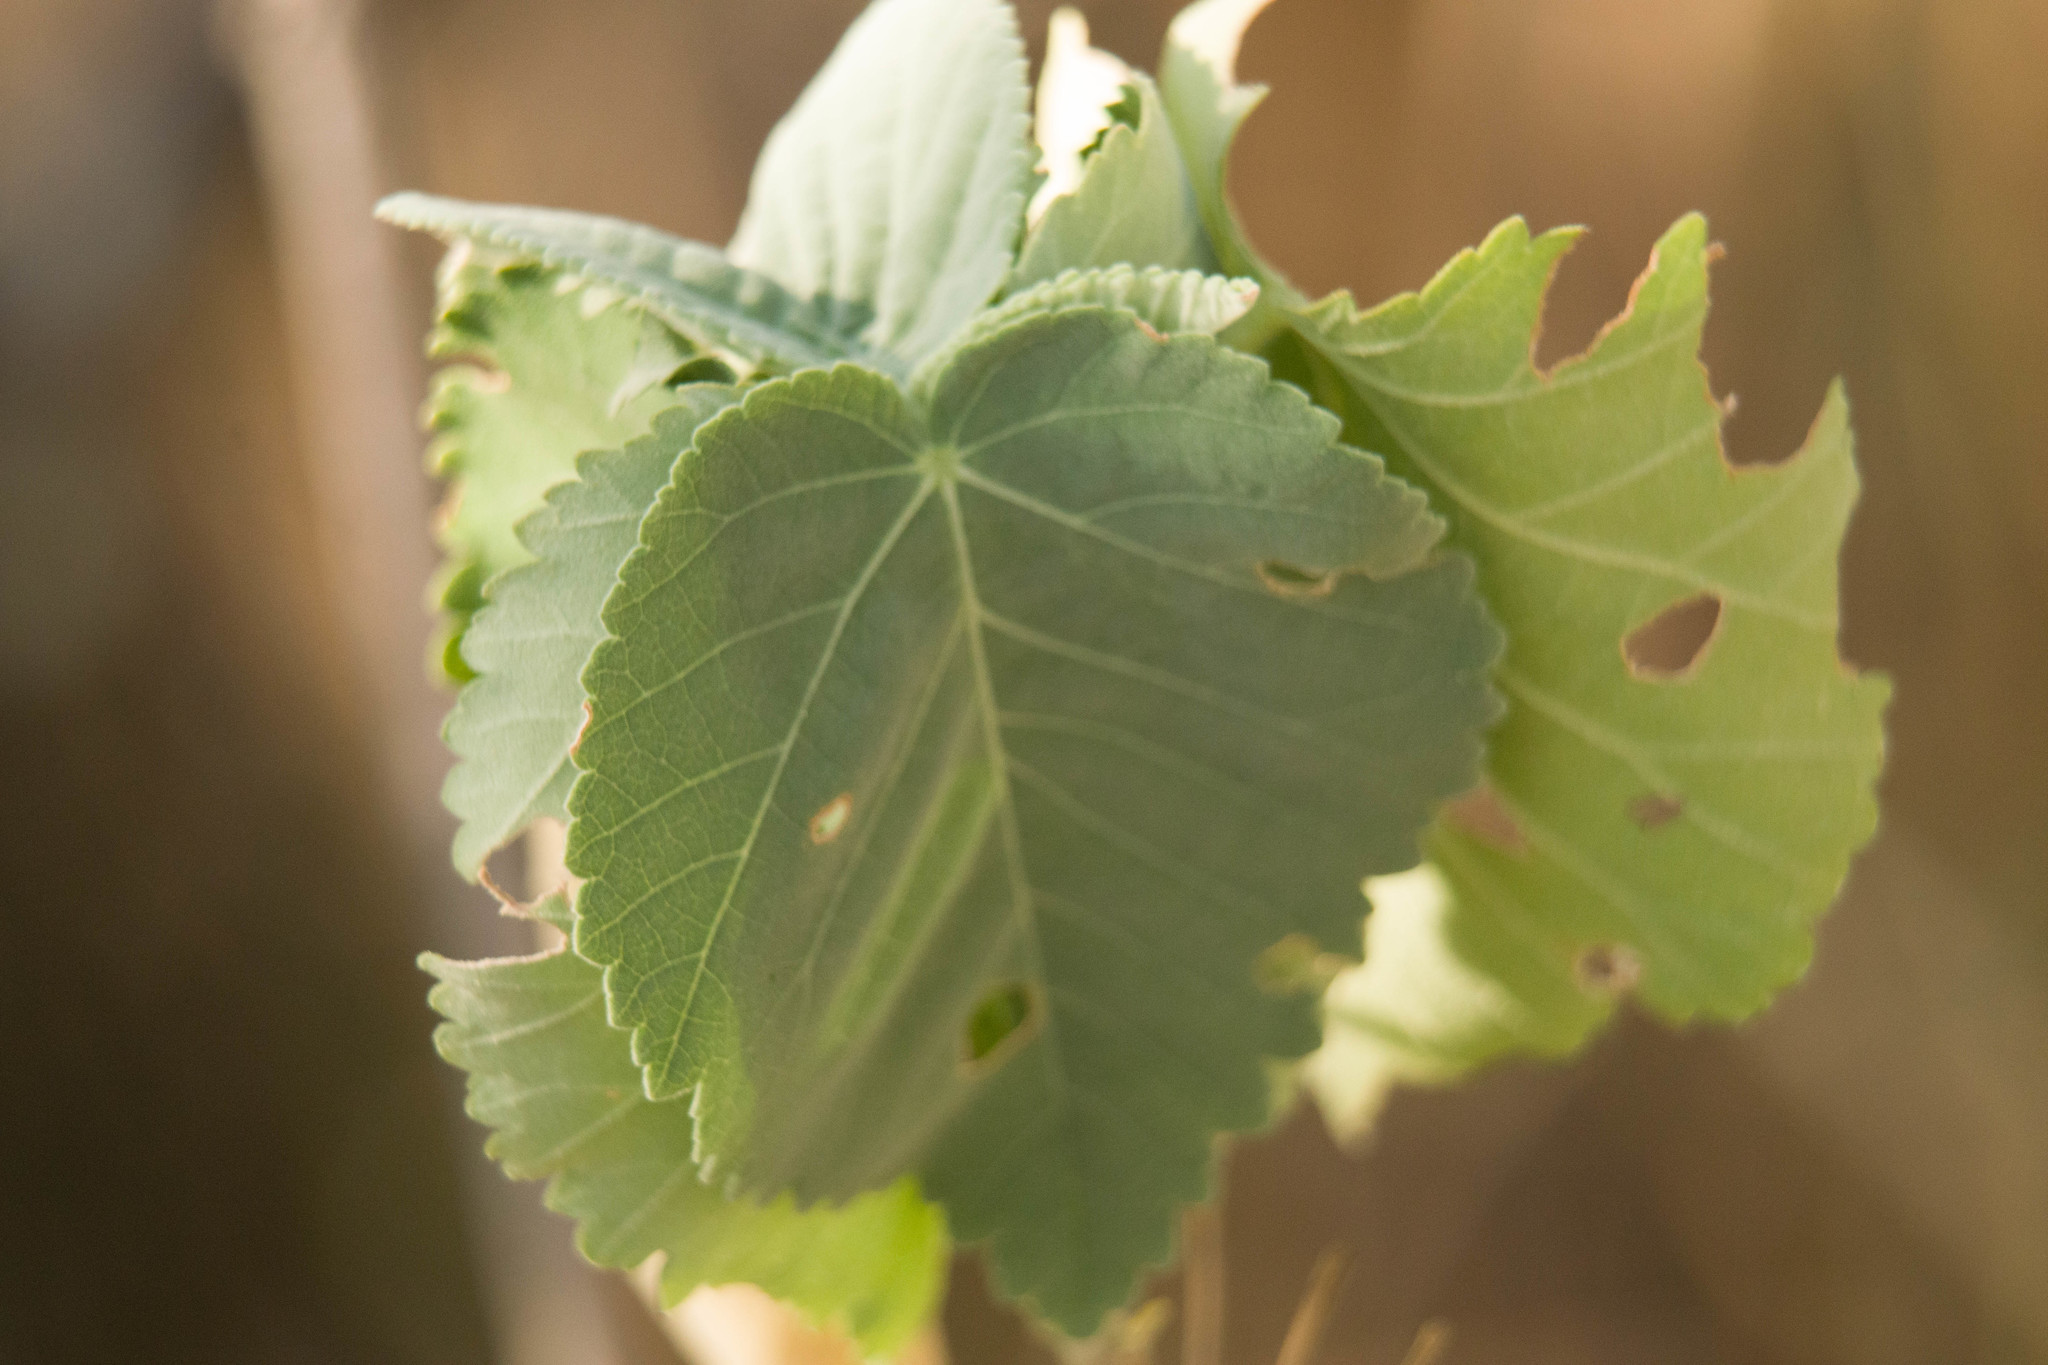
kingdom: Plantae
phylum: Tracheophyta
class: Magnoliopsida
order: Malvales
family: Malvaceae
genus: Abutilon
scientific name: Abutilon menziesii
